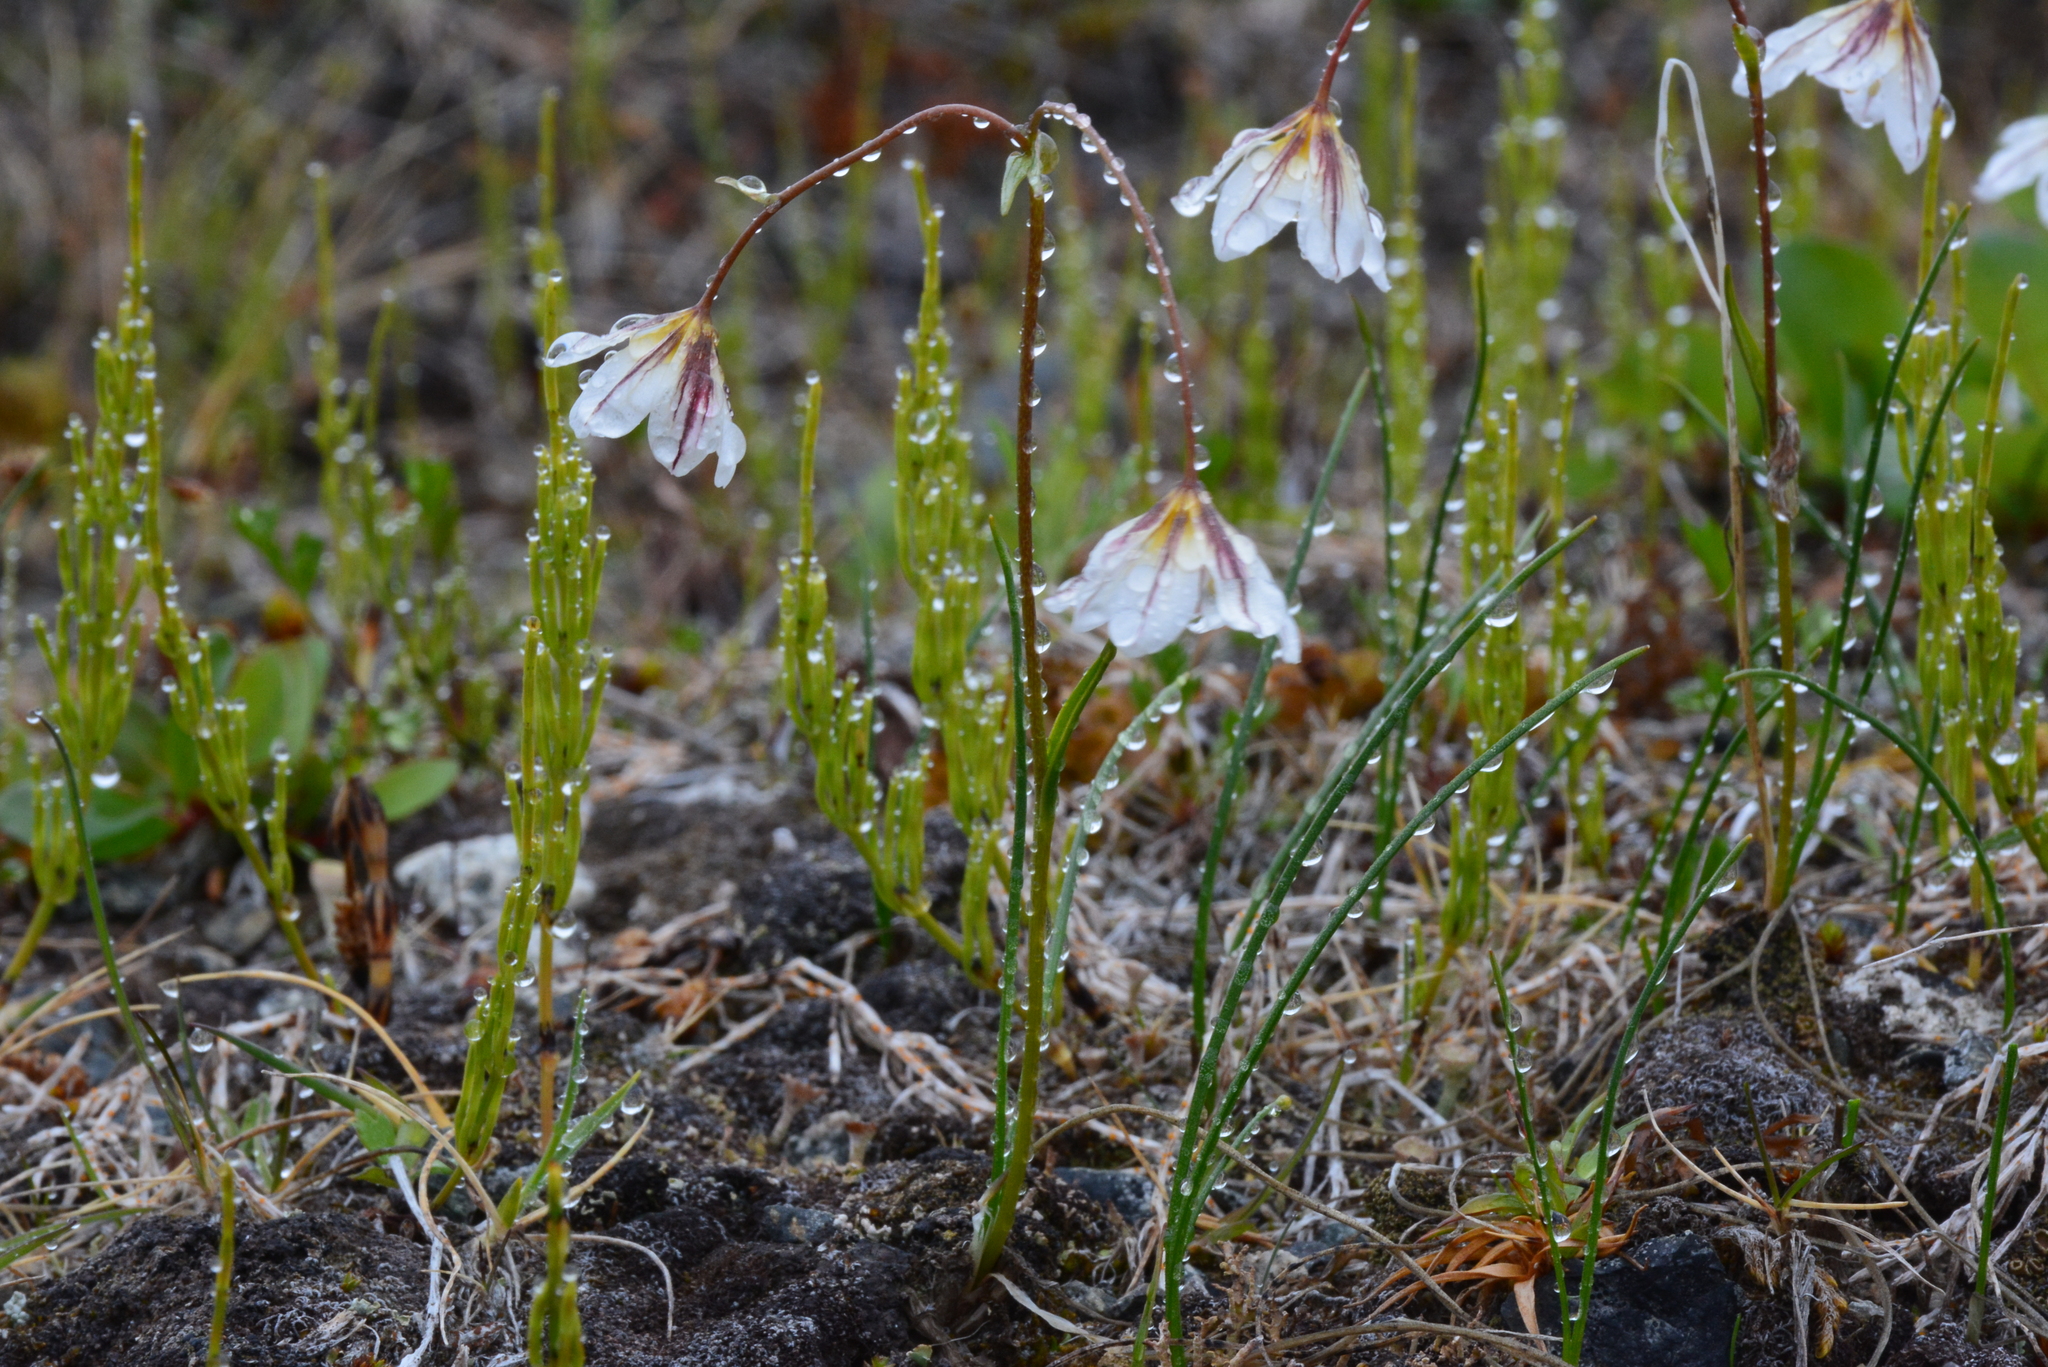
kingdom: Plantae
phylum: Tracheophyta
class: Liliopsida
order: Liliales
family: Liliaceae
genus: Gagea
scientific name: Gagea serotina
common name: Snowdon lily
